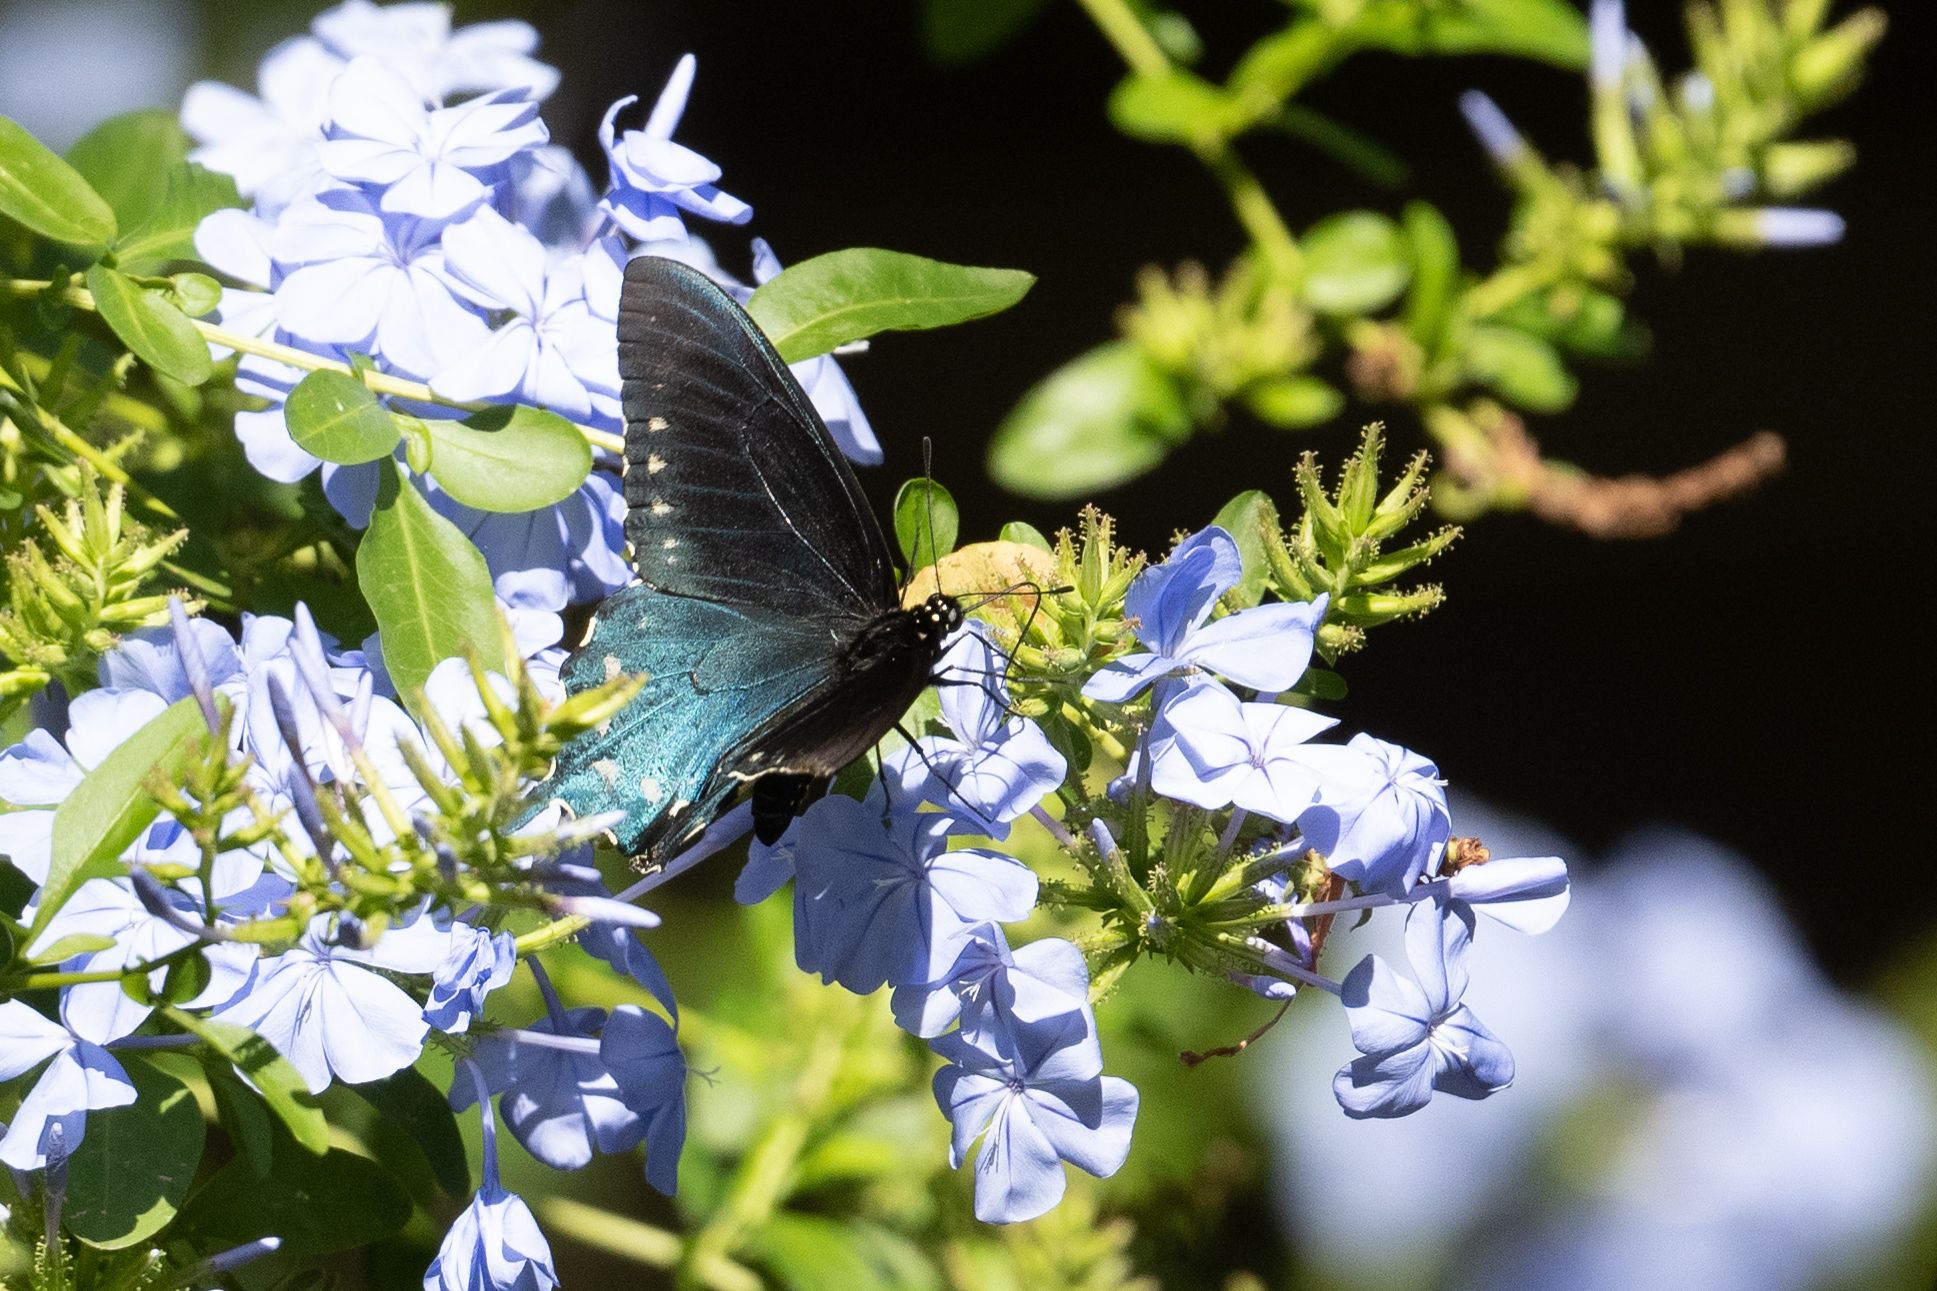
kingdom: Animalia
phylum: Arthropoda
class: Insecta
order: Lepidoptera
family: Papilionidae
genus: Battus
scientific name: Battus philenor
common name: Pipevine swallowtail
